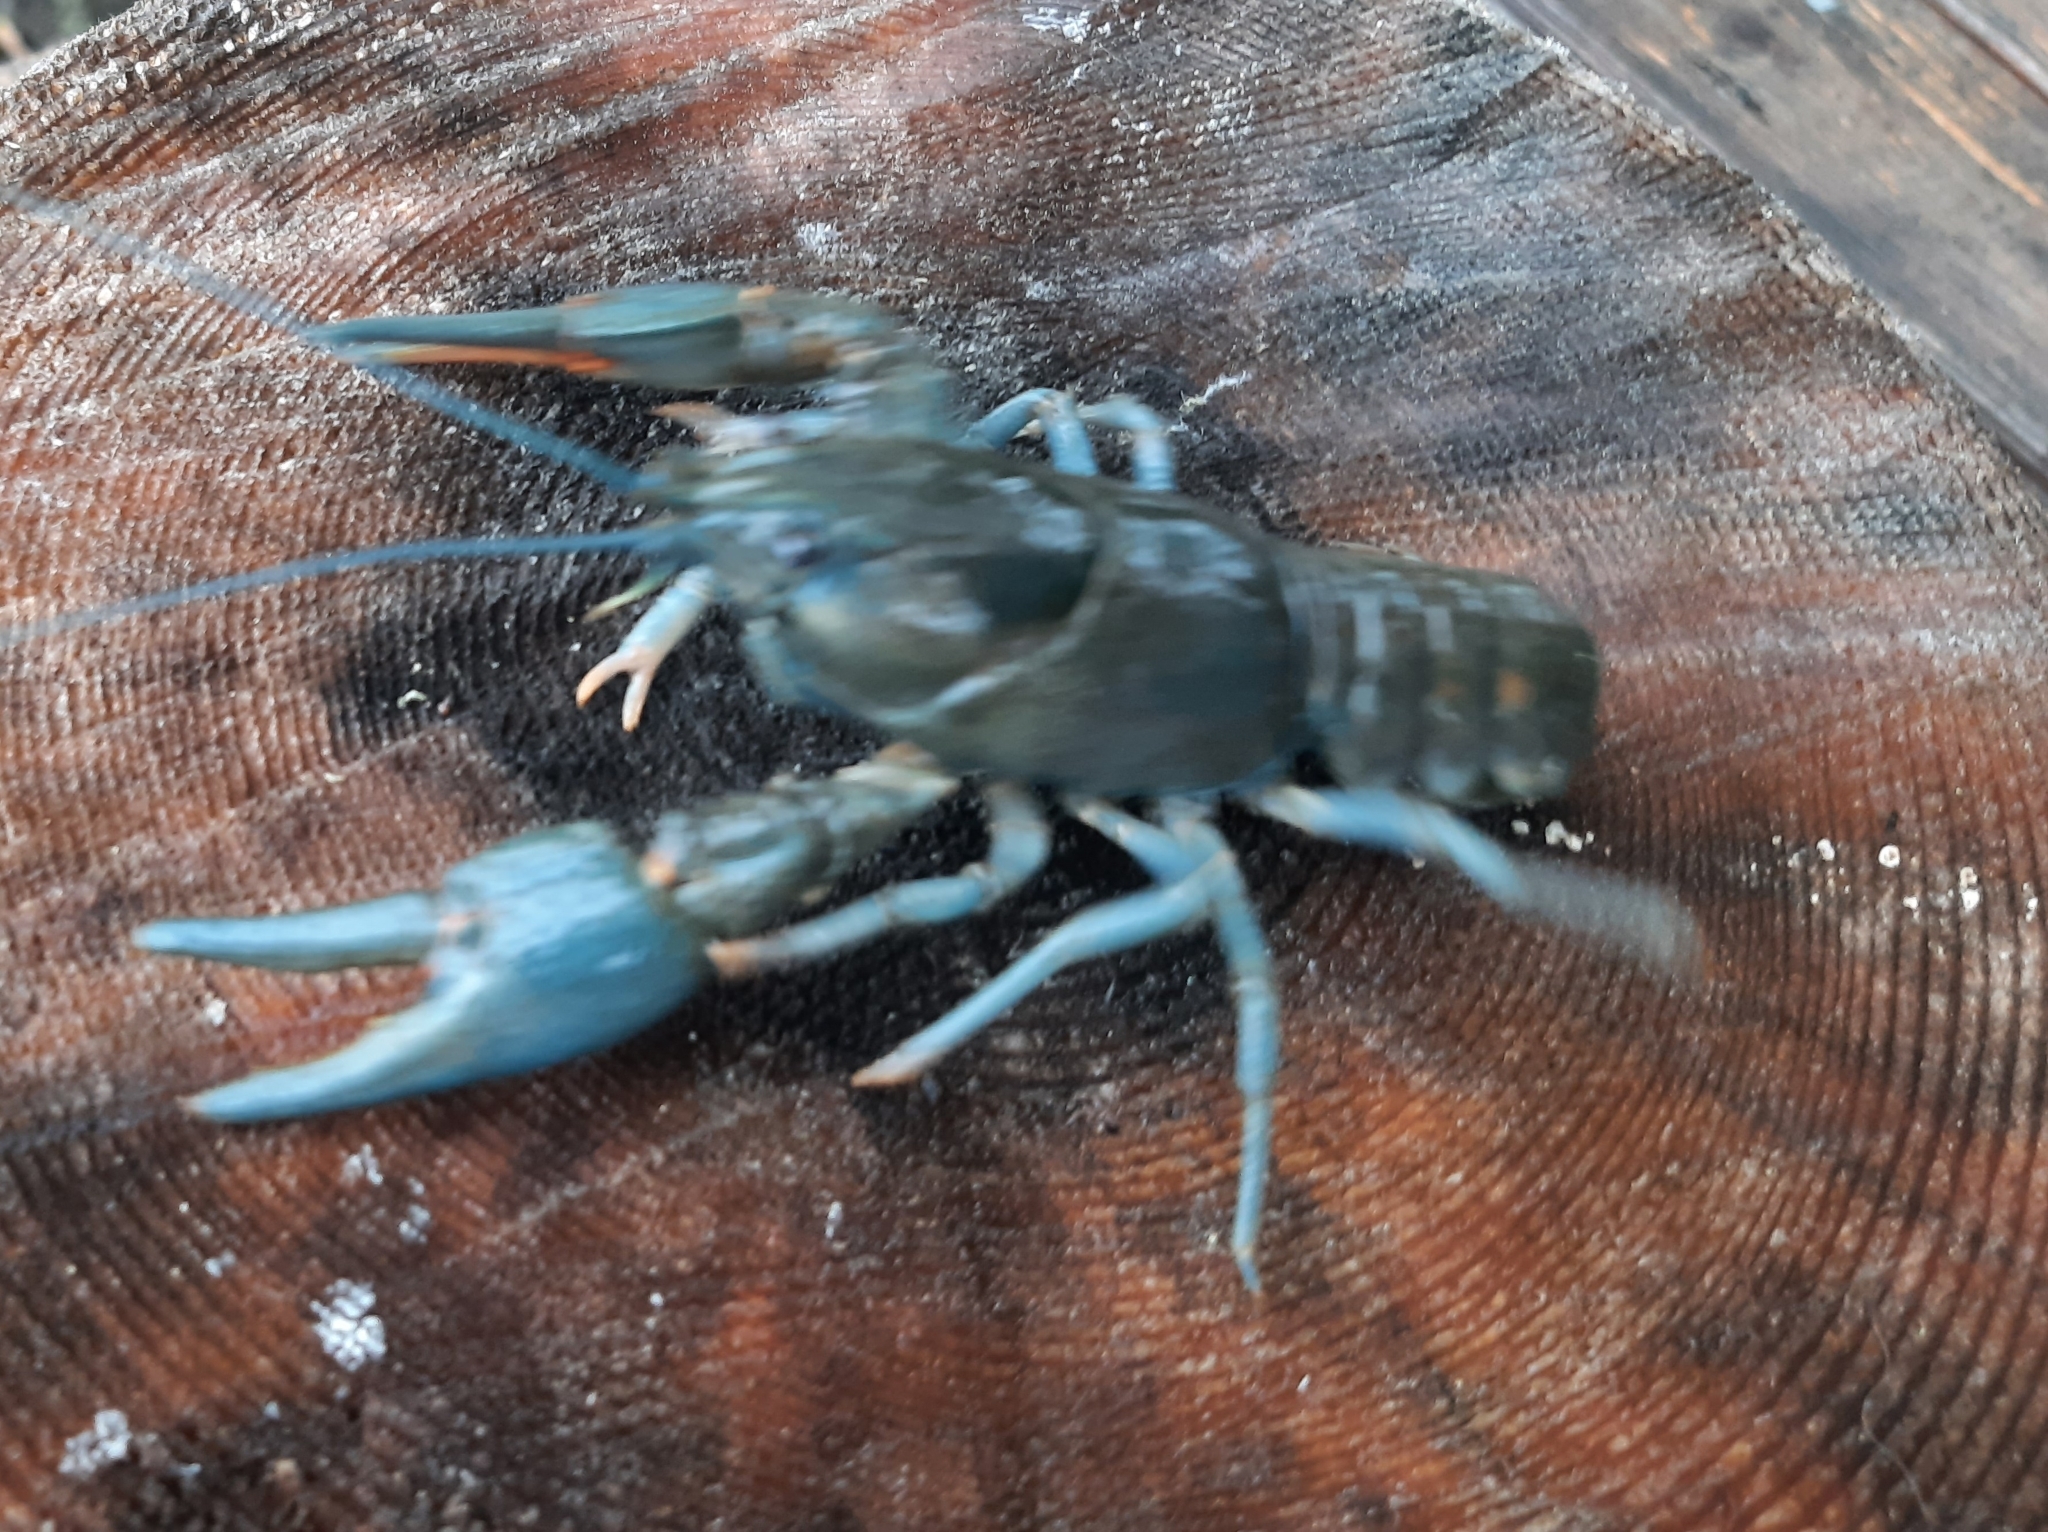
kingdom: Animalia
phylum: Arthropoda
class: Malacostraca
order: Decapoda
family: Astacidae
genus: Astacus
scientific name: Astacus astacus
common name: Noble crayfish
